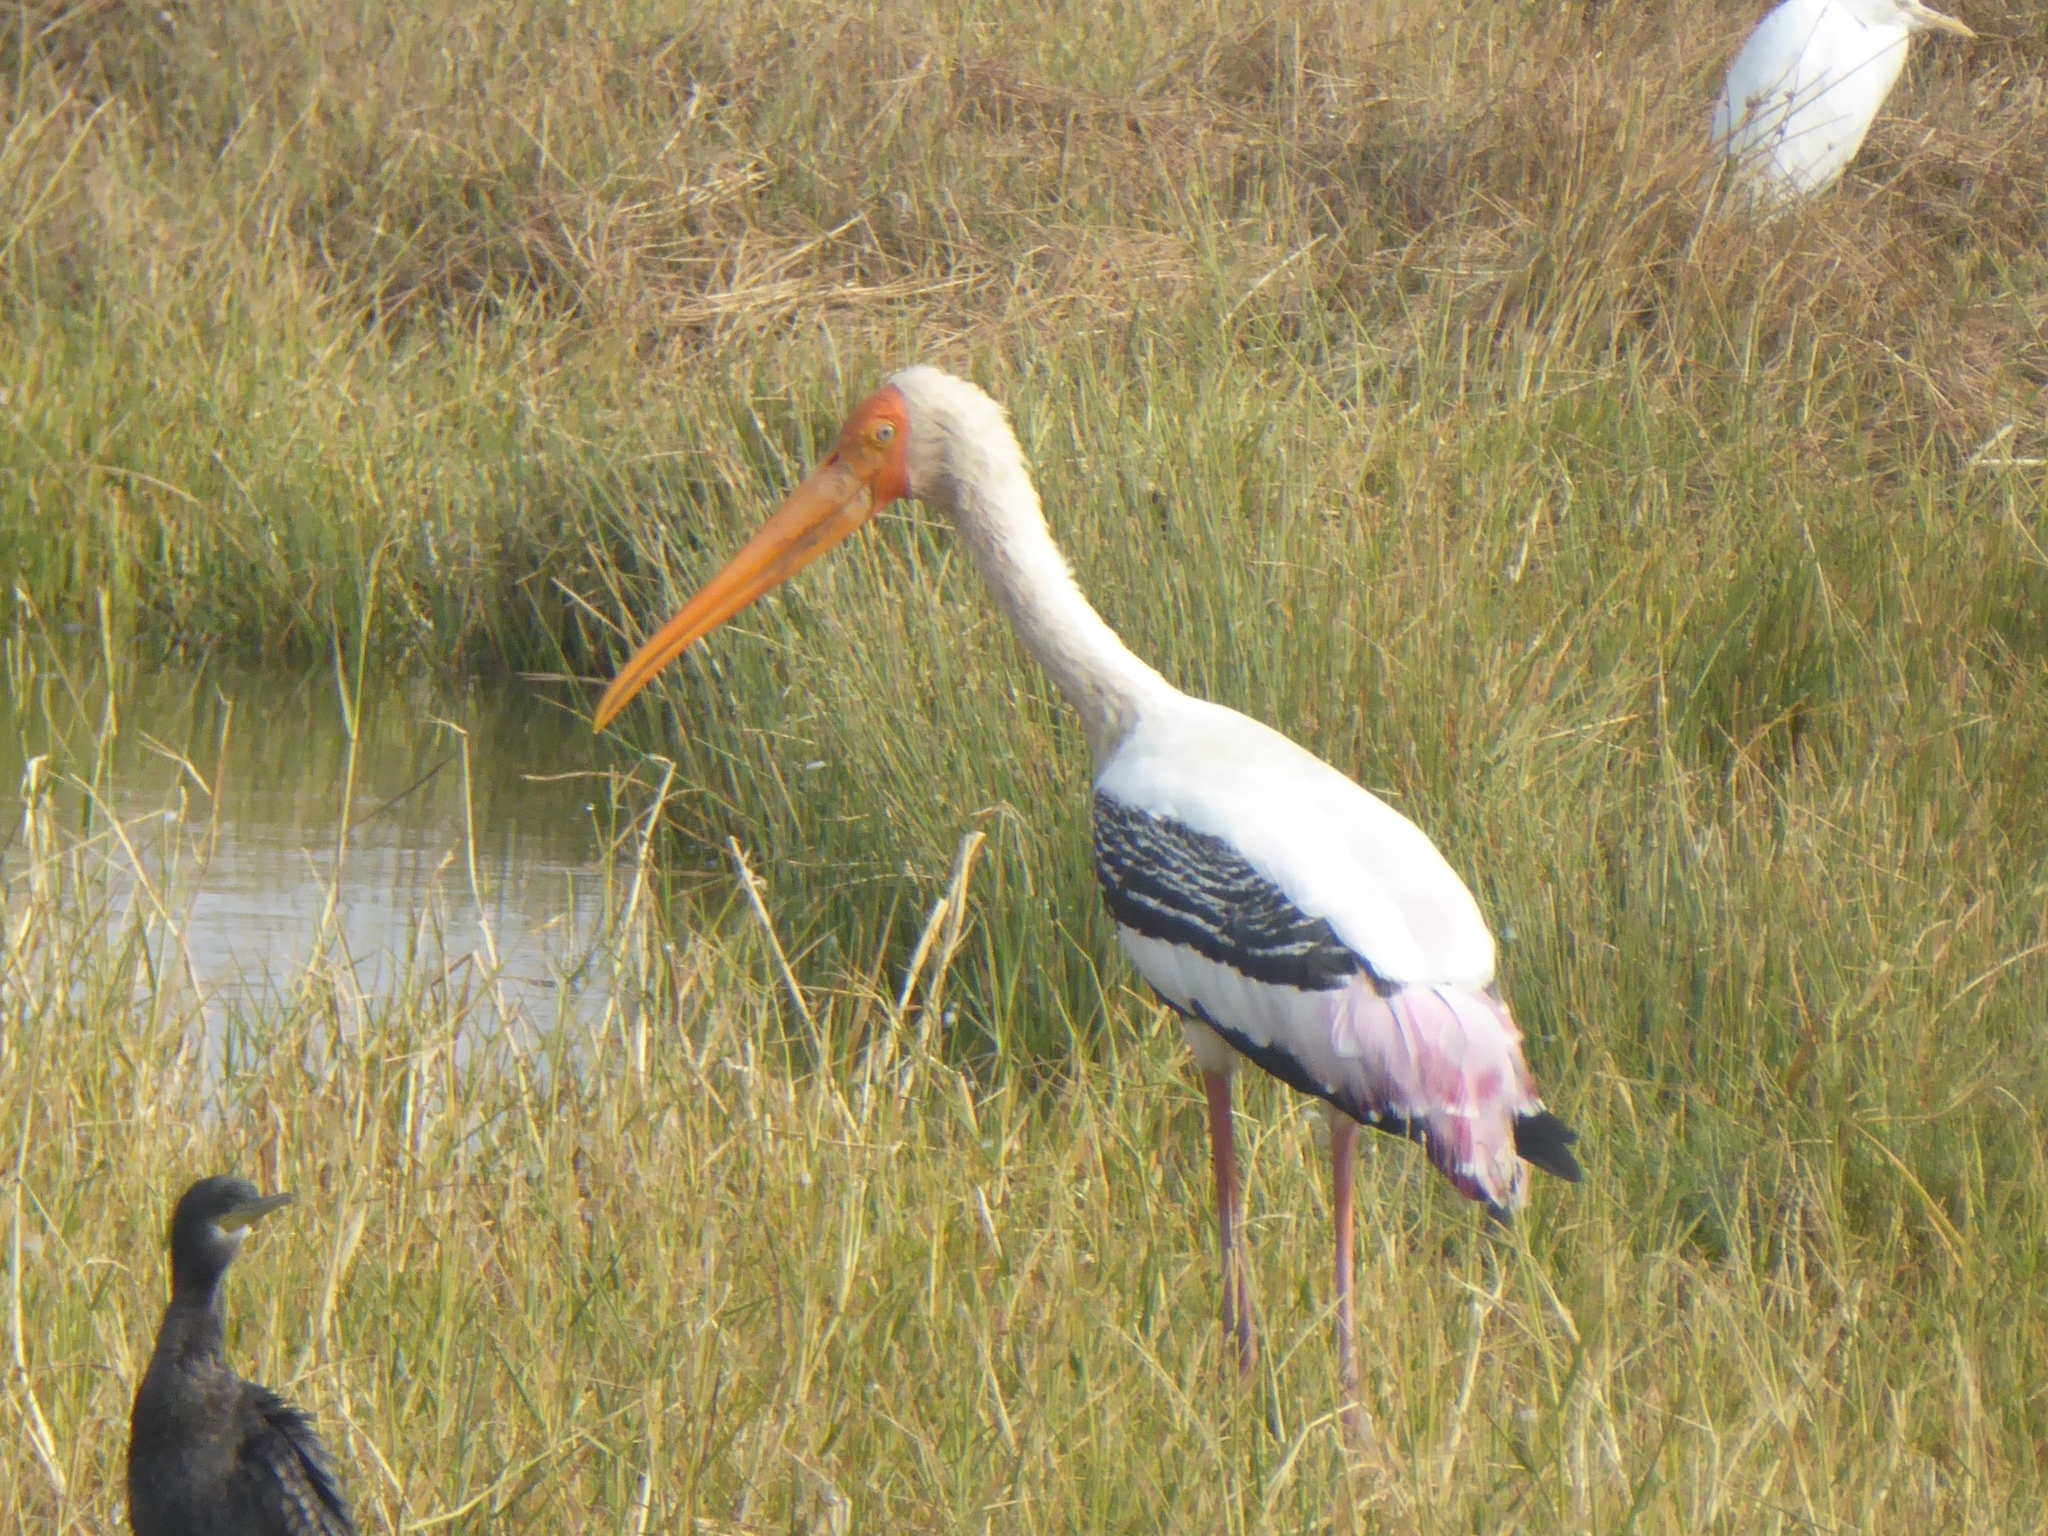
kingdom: Animalia
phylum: Chordata
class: Aves
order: Ciconiiformes
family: Ciconiidae
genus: Mycteria
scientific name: Mycteria leucocephala
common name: Painted stork
